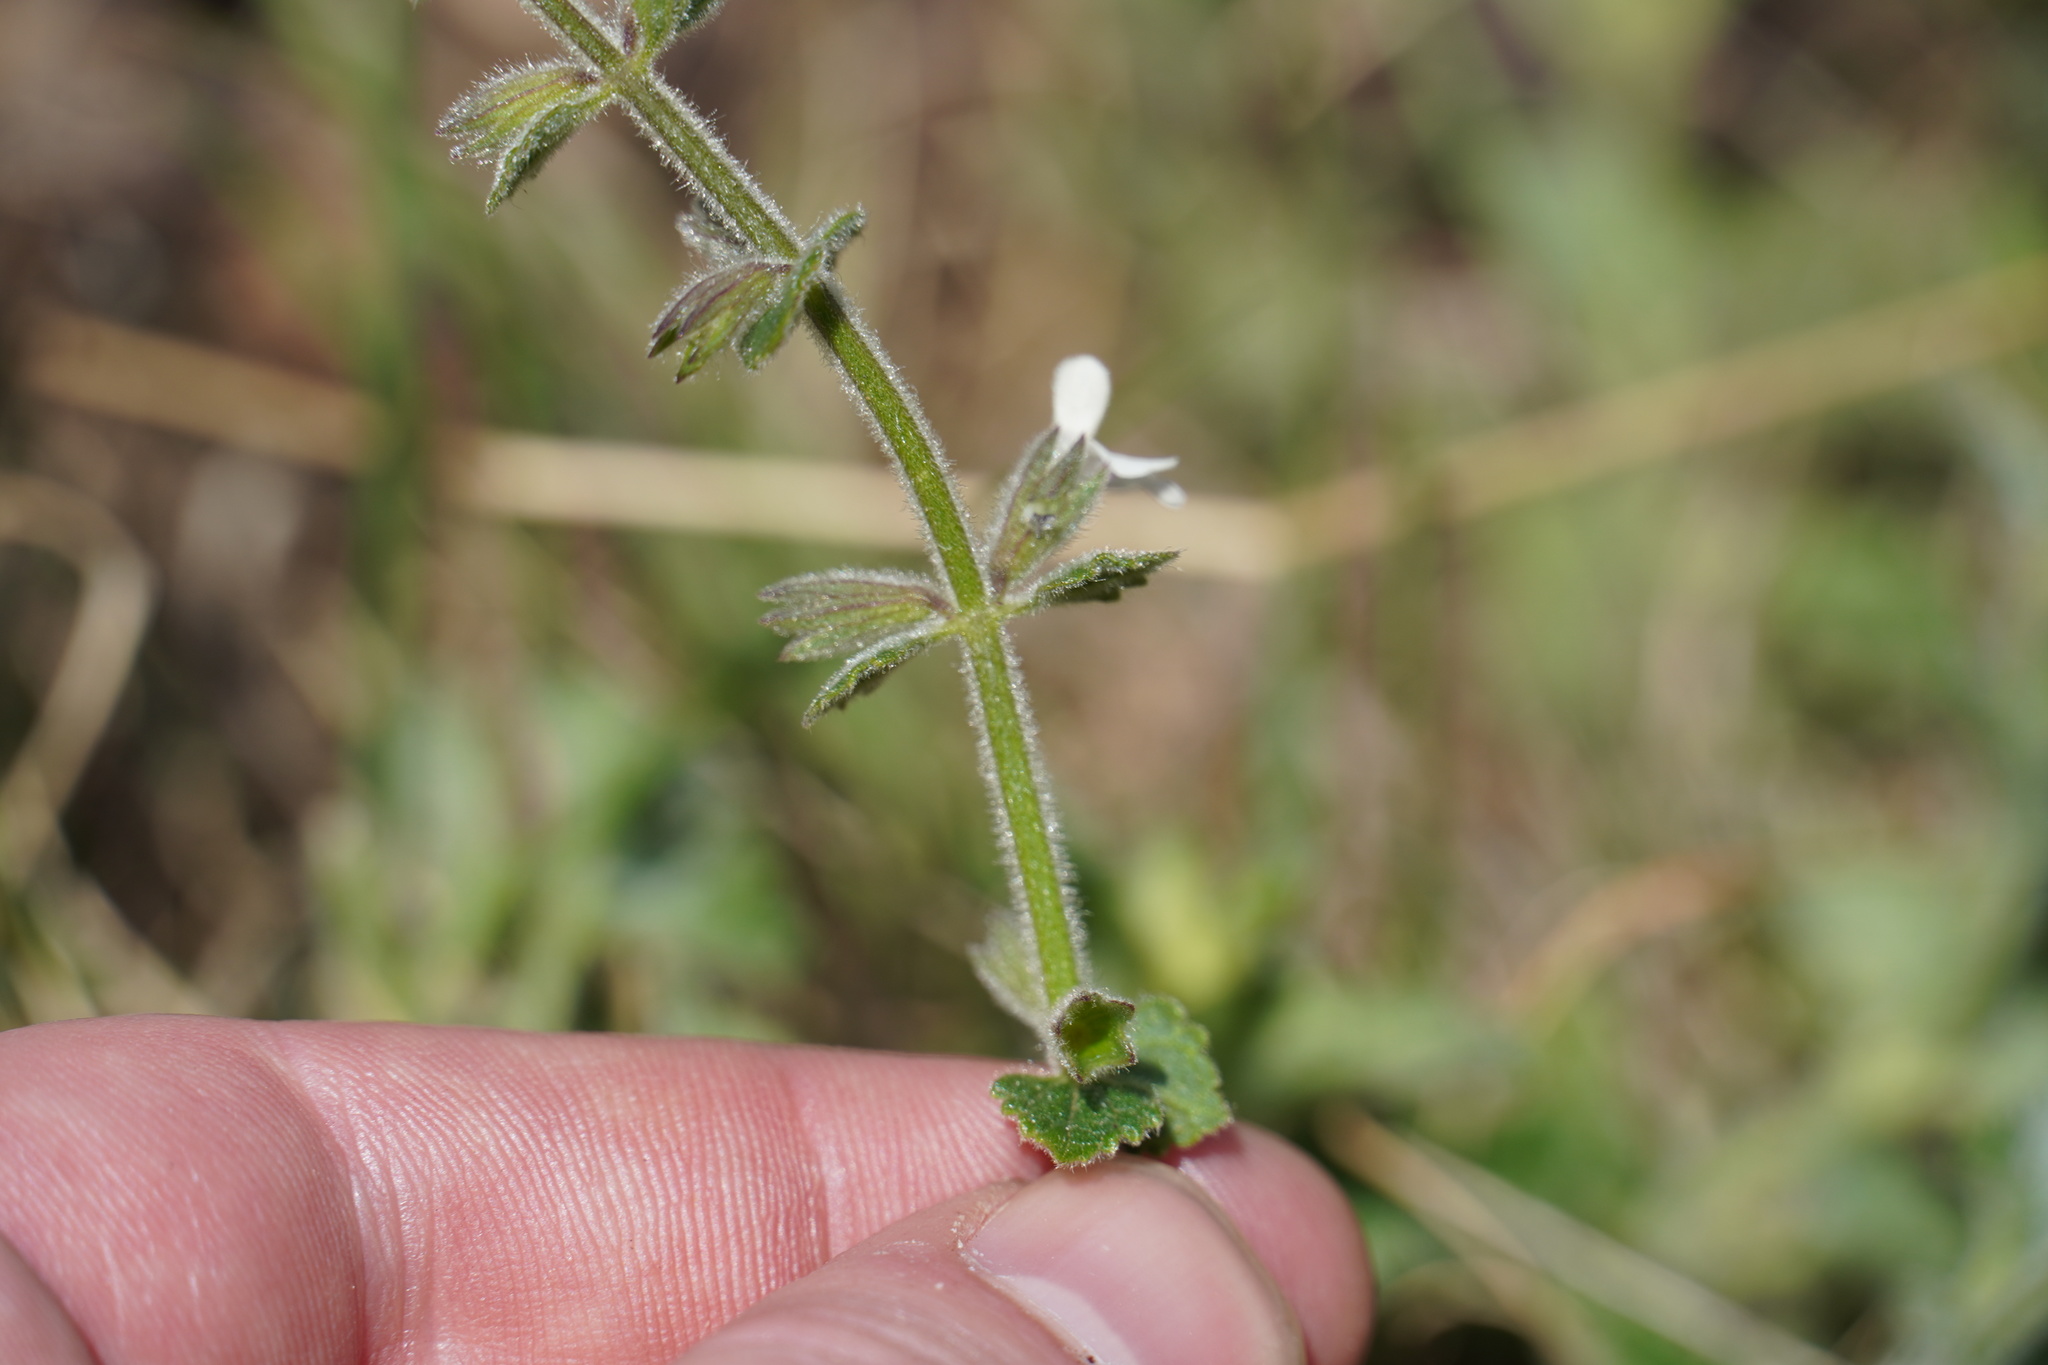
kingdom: Plantae
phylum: Tracheophyta
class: Magnoliopsida
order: Lamiales
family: Lamiaceae
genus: Stachys
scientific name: Stachys aethiopica
